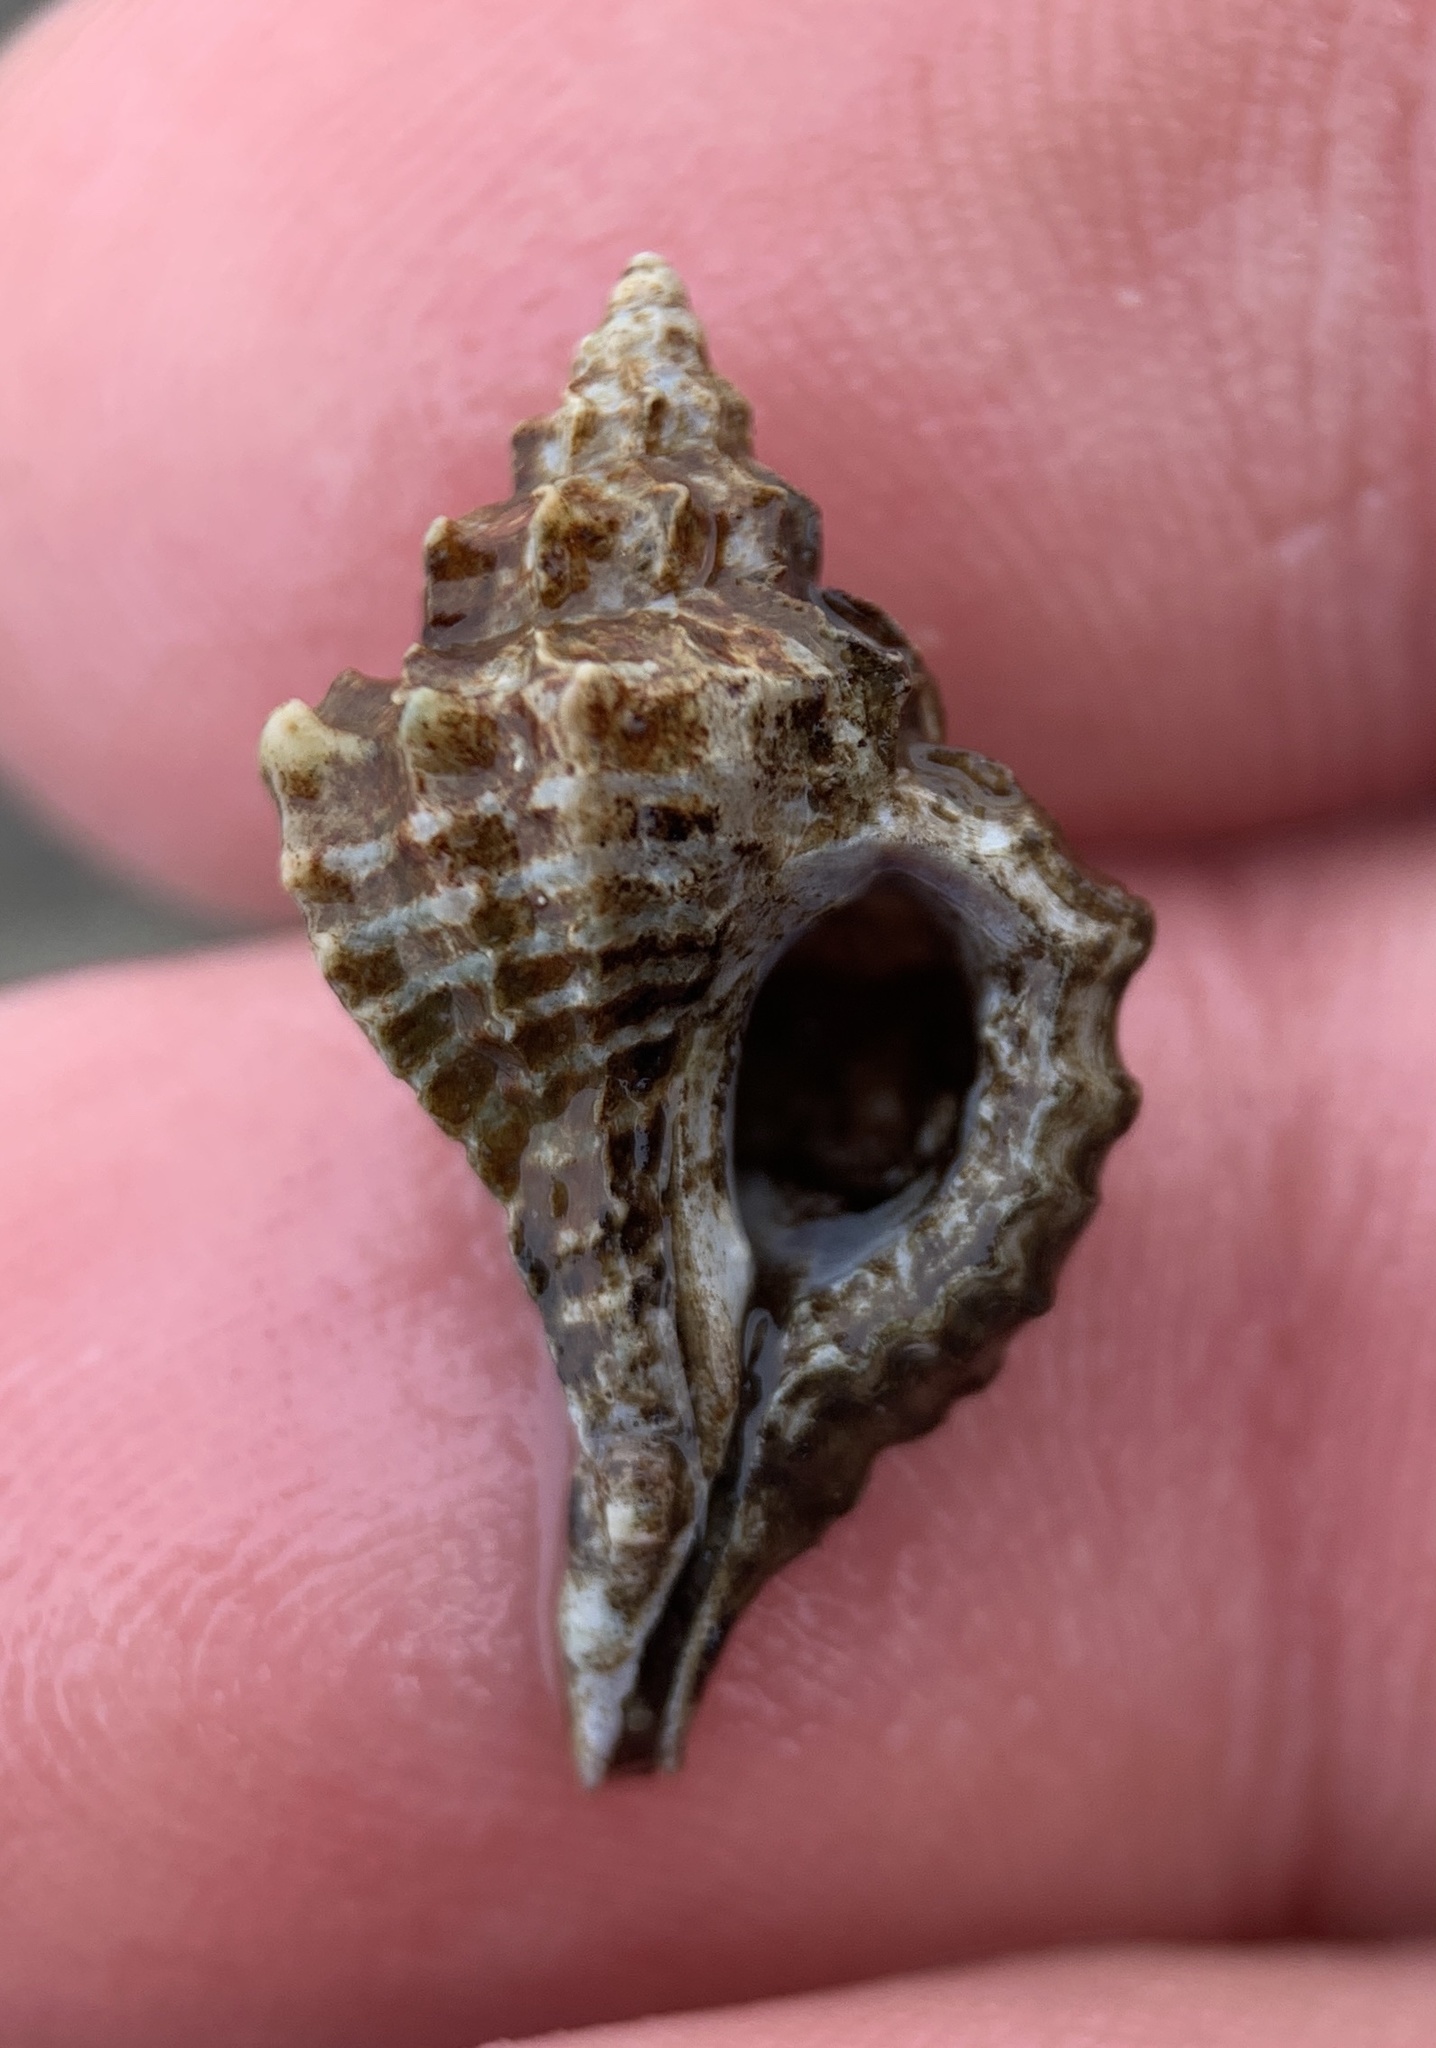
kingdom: Animalia
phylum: Mollusca
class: Gastropoda
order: Neogastropoda
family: Muricidae
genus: Eupleura
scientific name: Eupleura caudata
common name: Thick-lip drill
